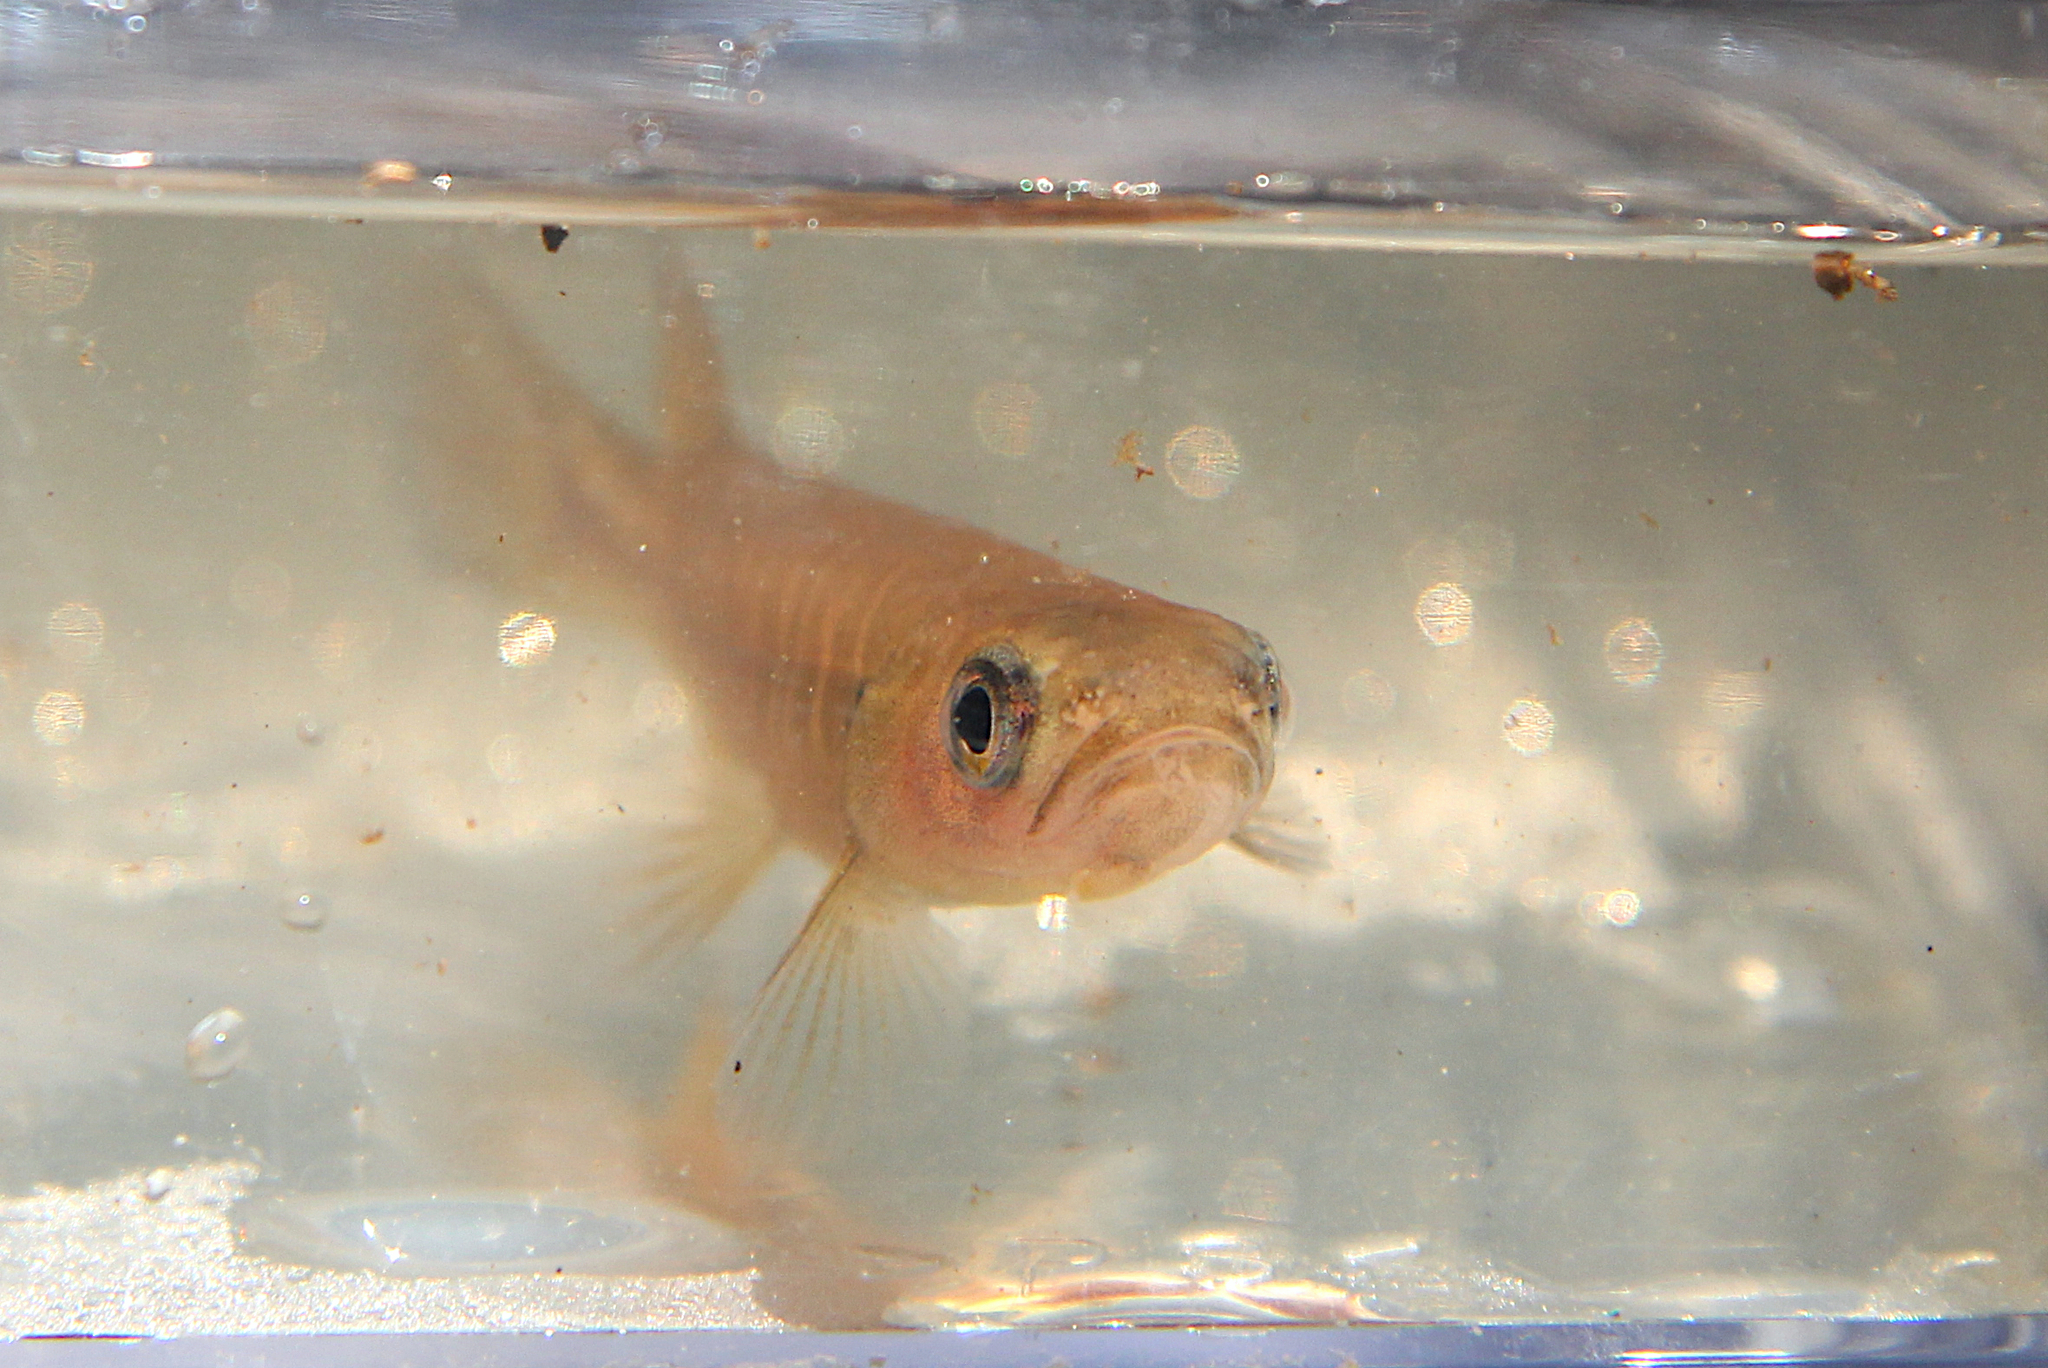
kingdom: Animalia
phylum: Chordata
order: Osmeriformes
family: Galaxiidae
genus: Galaxias
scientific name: Galaxias fasciatus
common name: Banded kokopu
